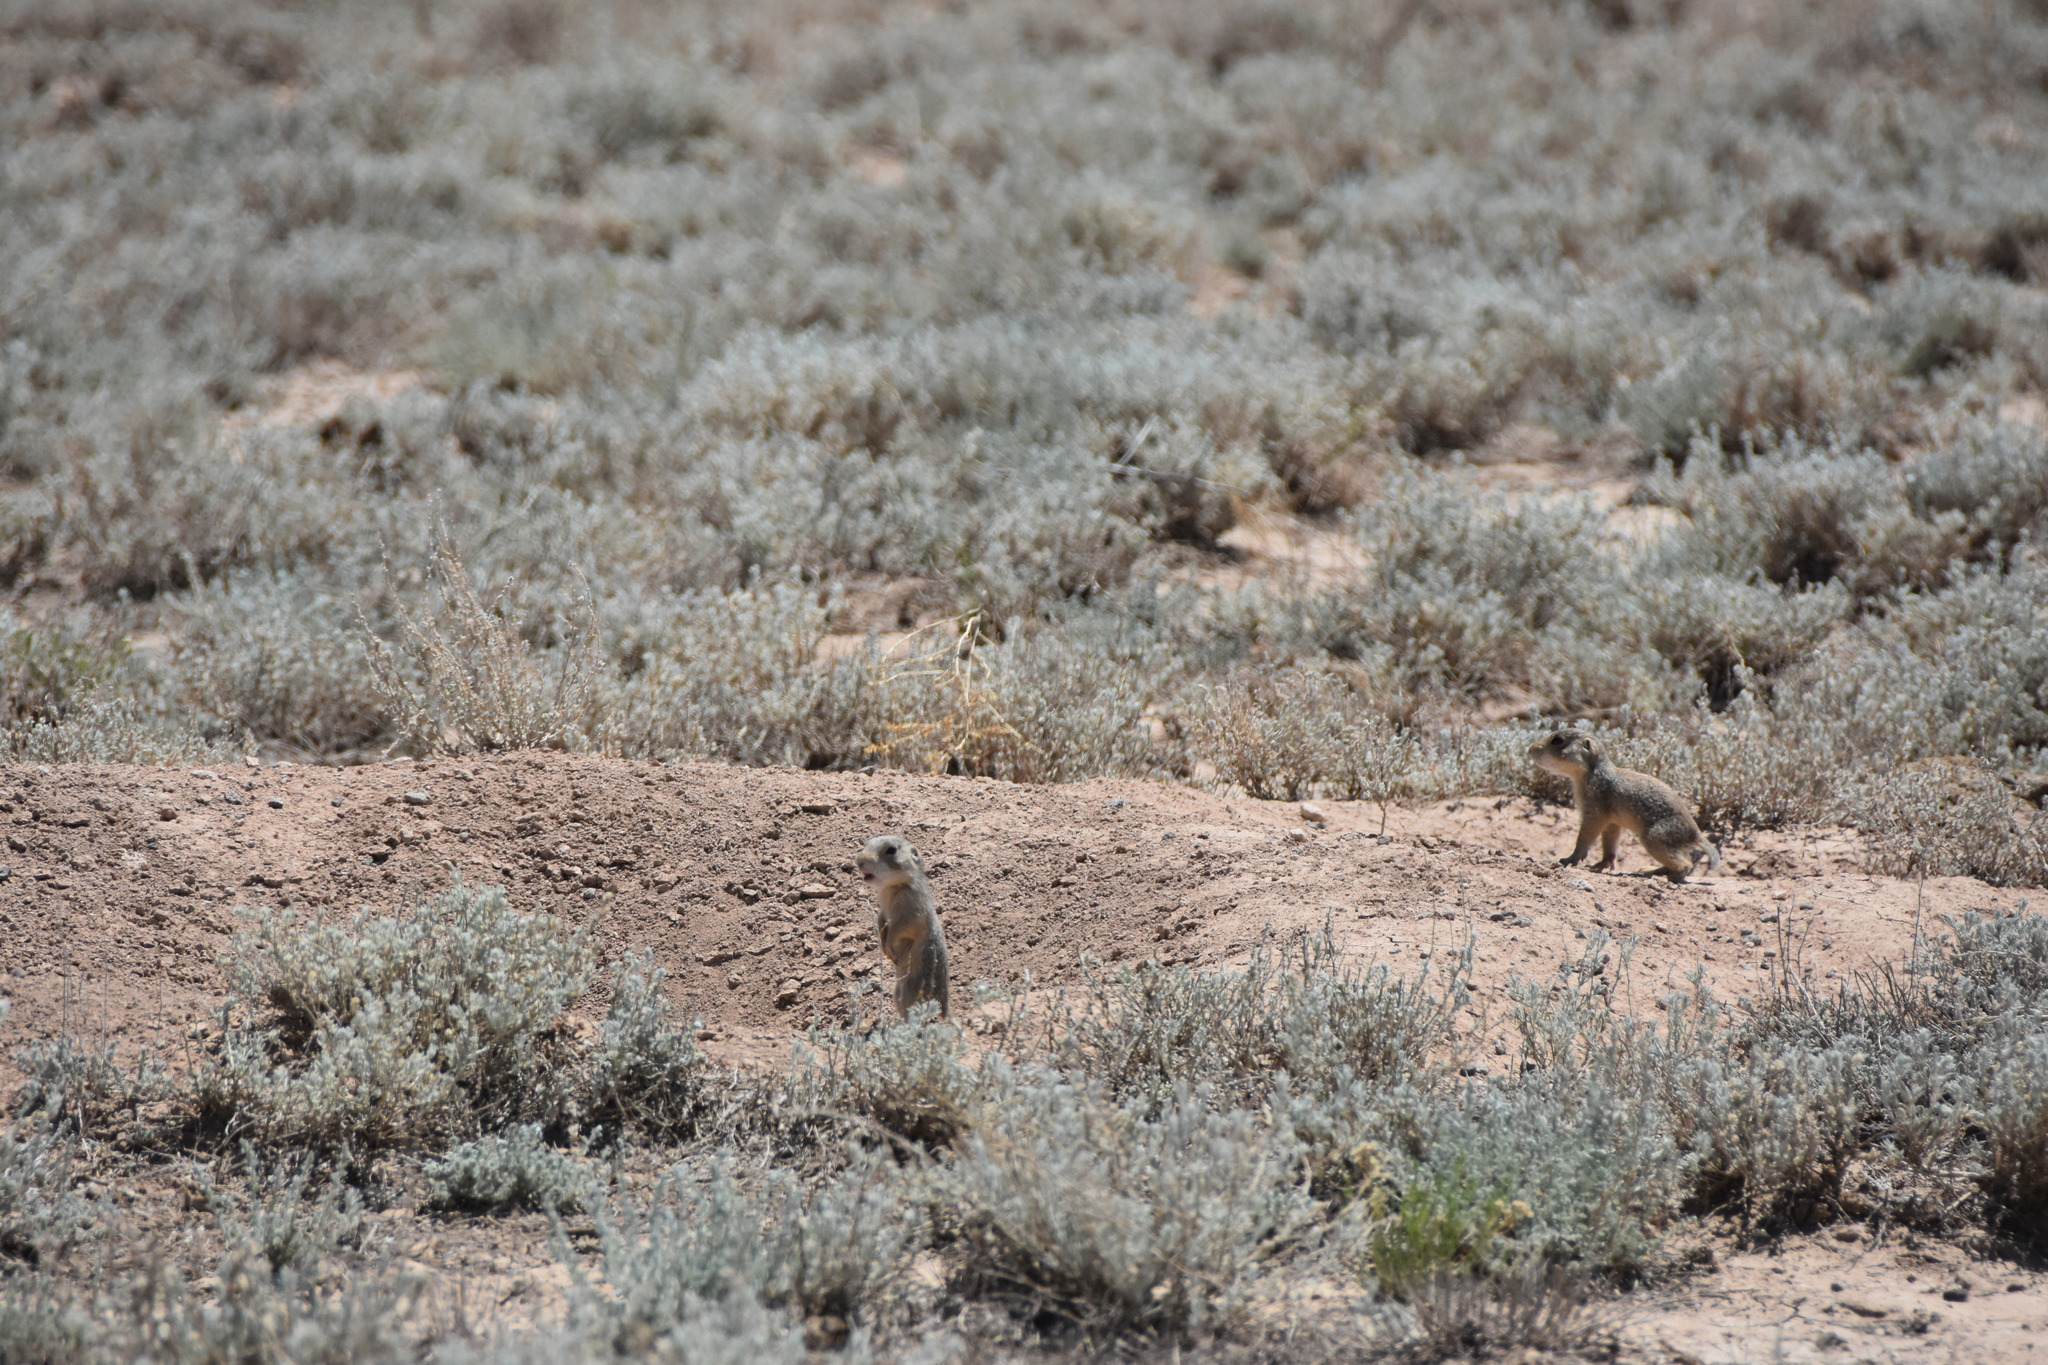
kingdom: Animalia
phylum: Chordata
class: Mammalia
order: Rodentia
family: Sciuridae
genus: Cynomys
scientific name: Cynomys gunnisoni
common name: Gunnison's prairie dog
